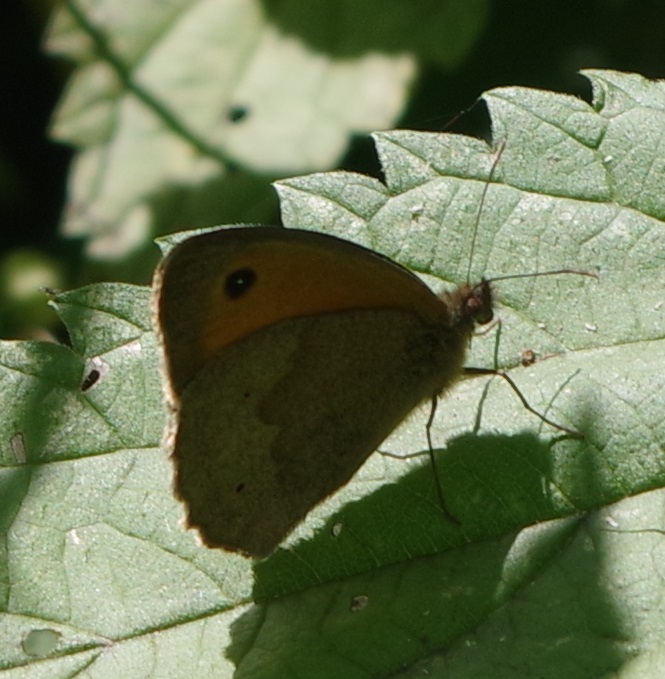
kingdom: Animalia
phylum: Arthropoda
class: Insecta
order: Lepidoptera
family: Nymphalidae
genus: Maniola
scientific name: Maniola jurtina
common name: Meadow brown
